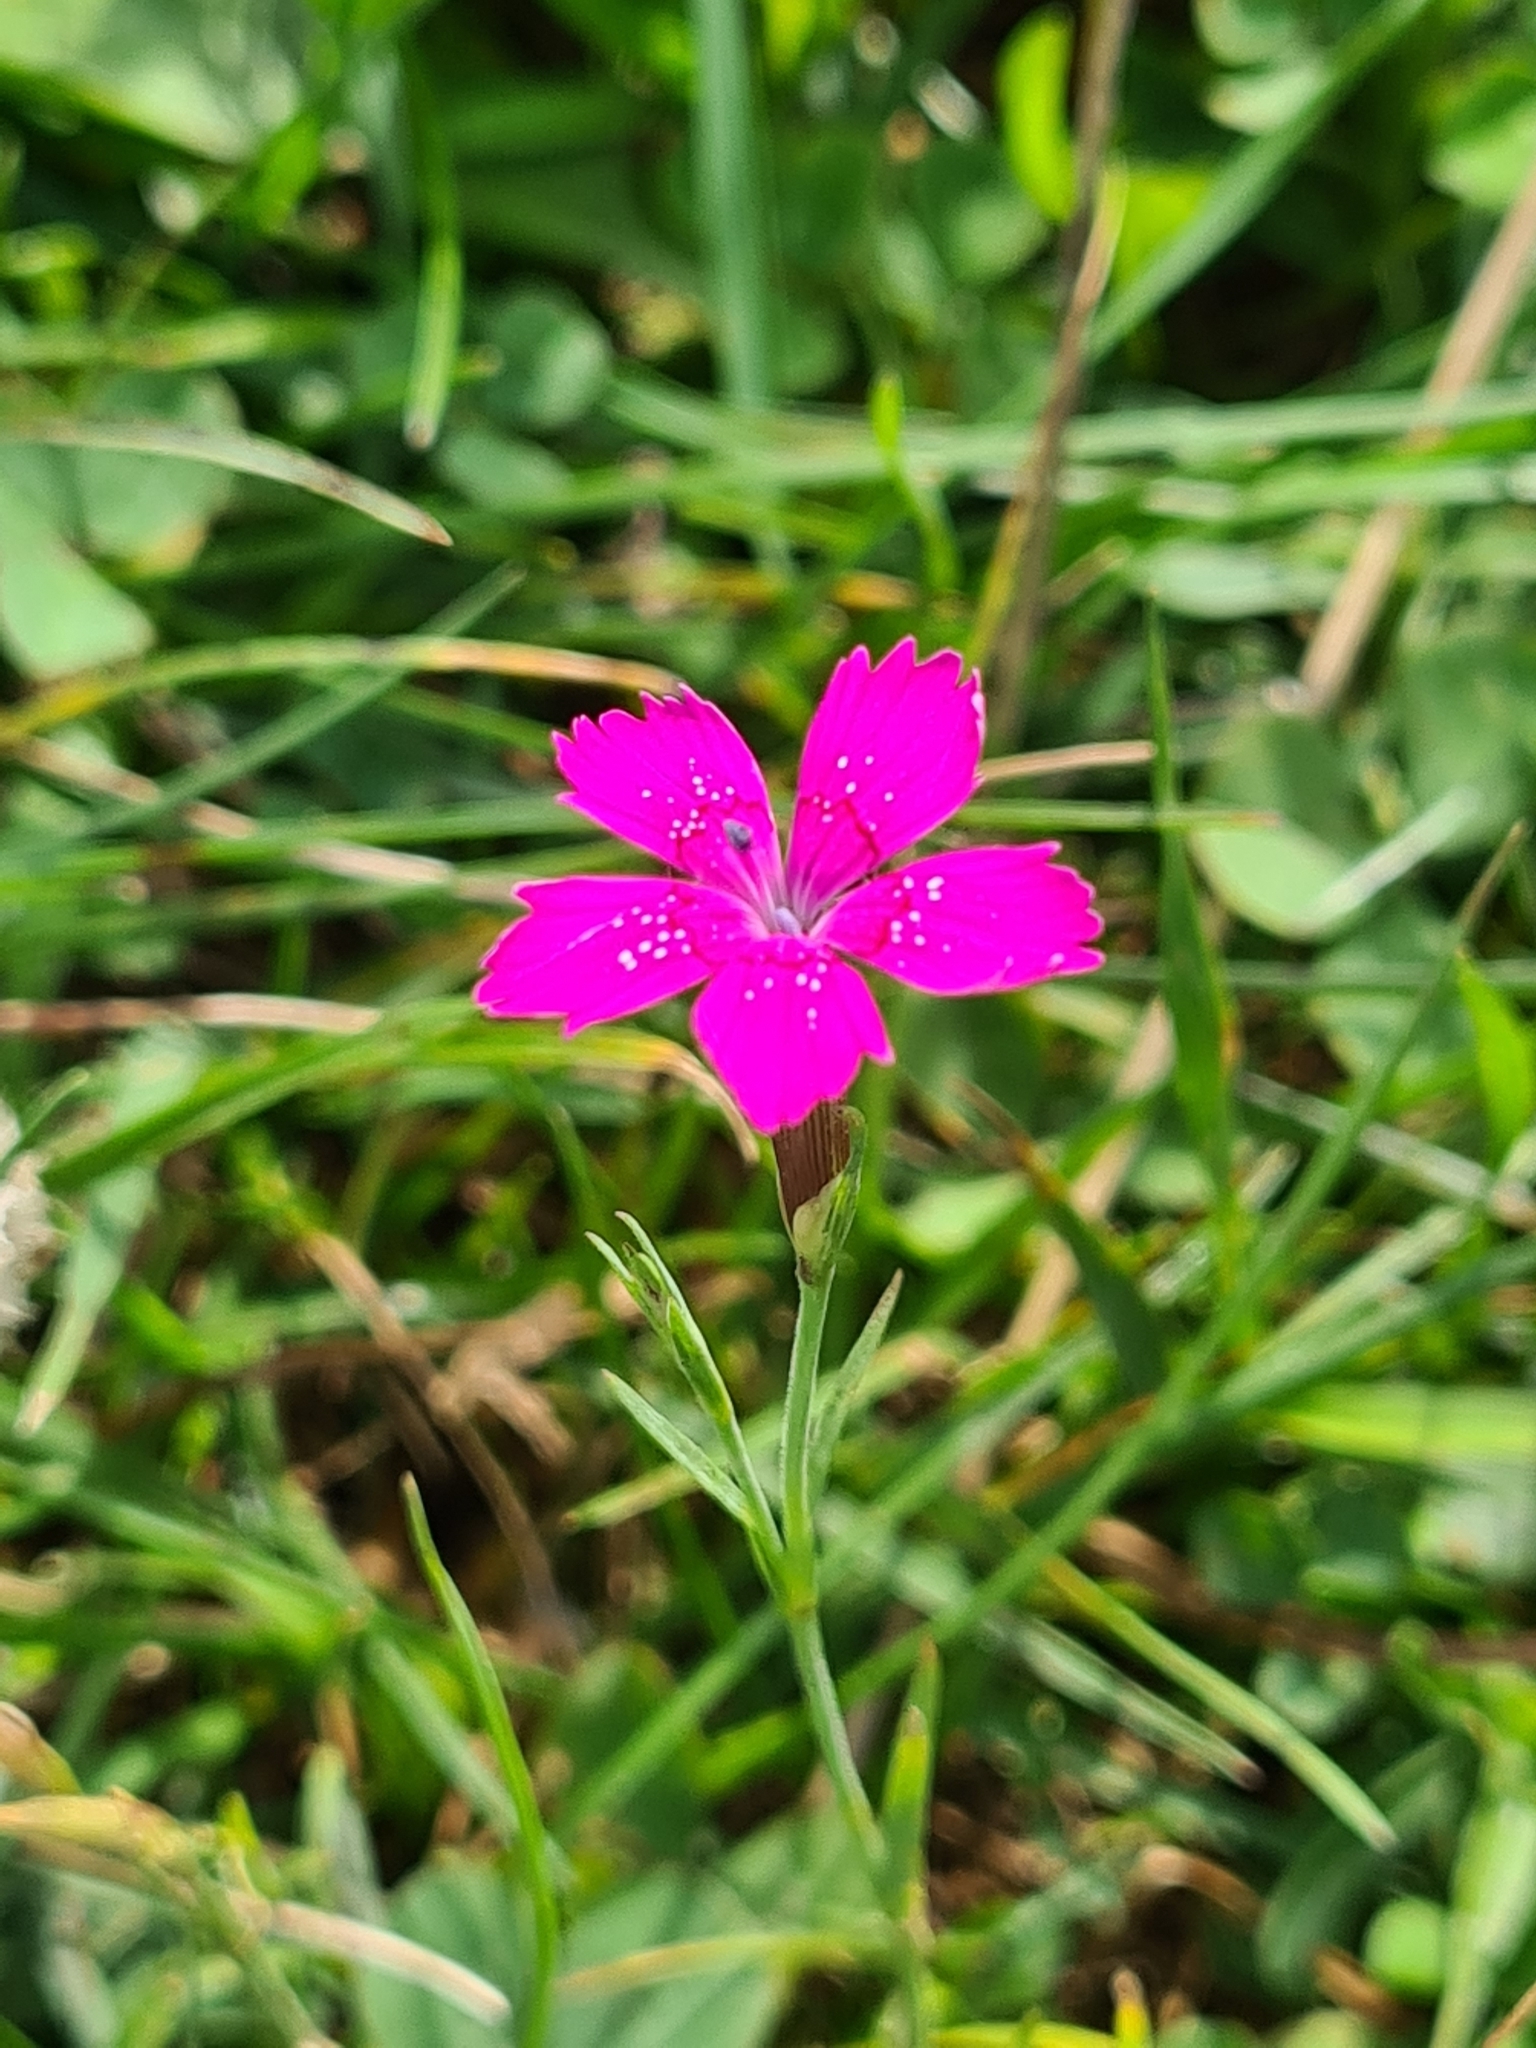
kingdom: Plantae
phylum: Tracheophyta
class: Magnoliopsida
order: Caryophyllales
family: Caryophyllaceae
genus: Dianthus
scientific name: Dianthus deltoides
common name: Maiden pink
